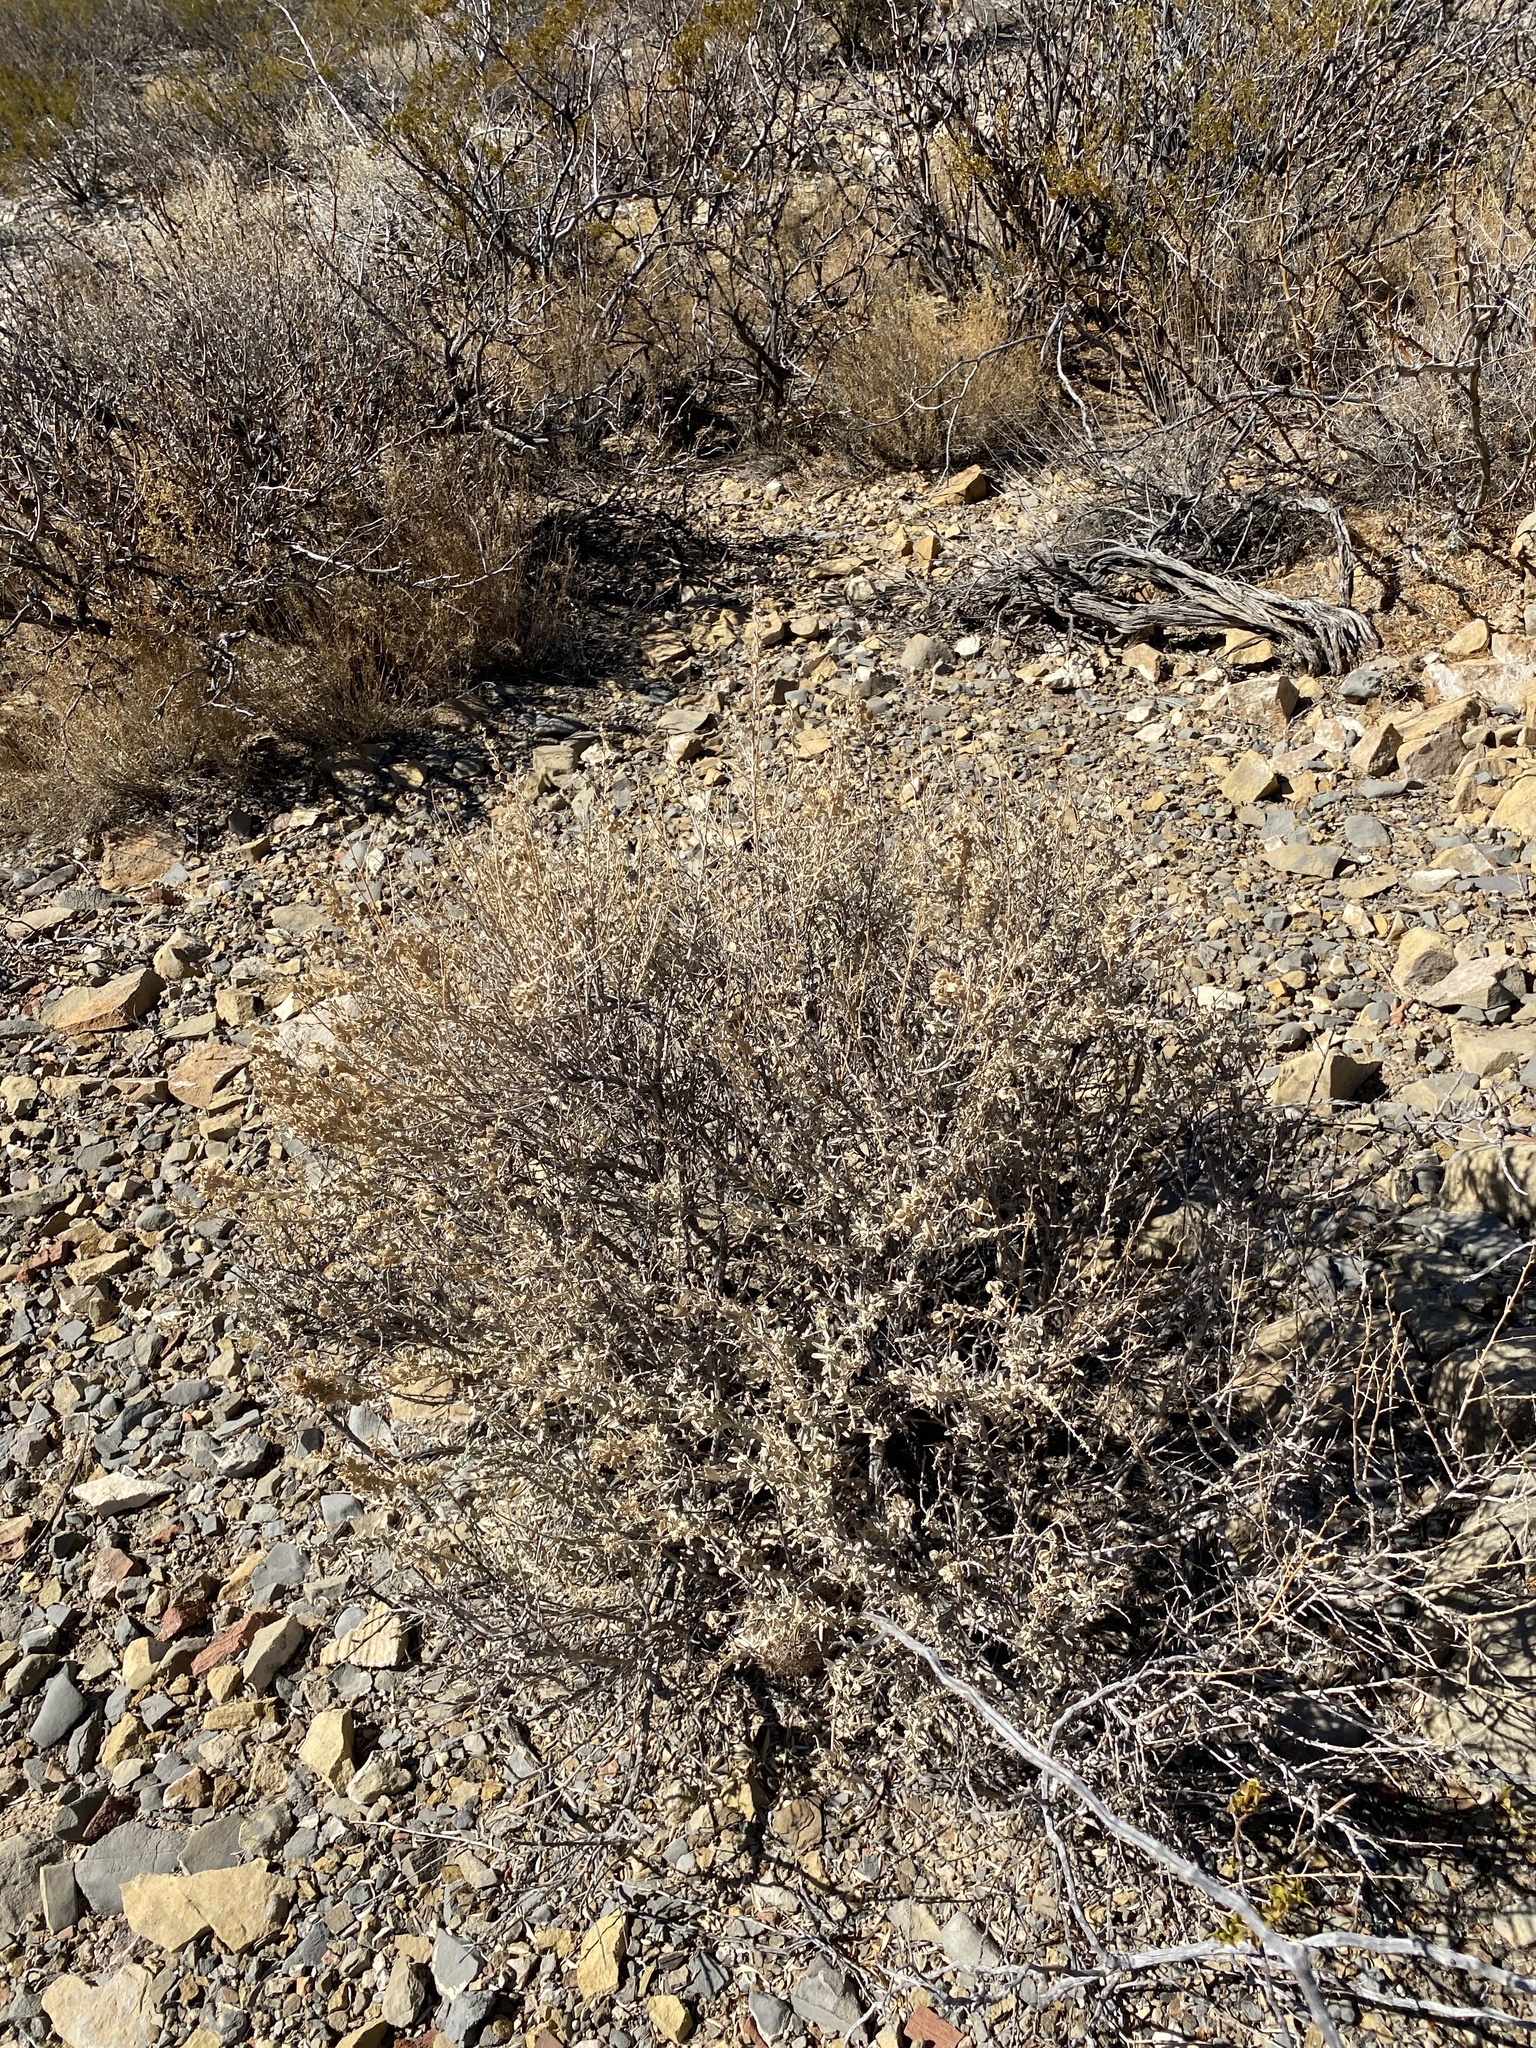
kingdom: Plantae
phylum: Tracheophyta
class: Magnoliopsida
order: Caryophyllales
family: Amaranthaceae
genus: Atriplex
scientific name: Atriplex canescens
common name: Four-wing saltbush
